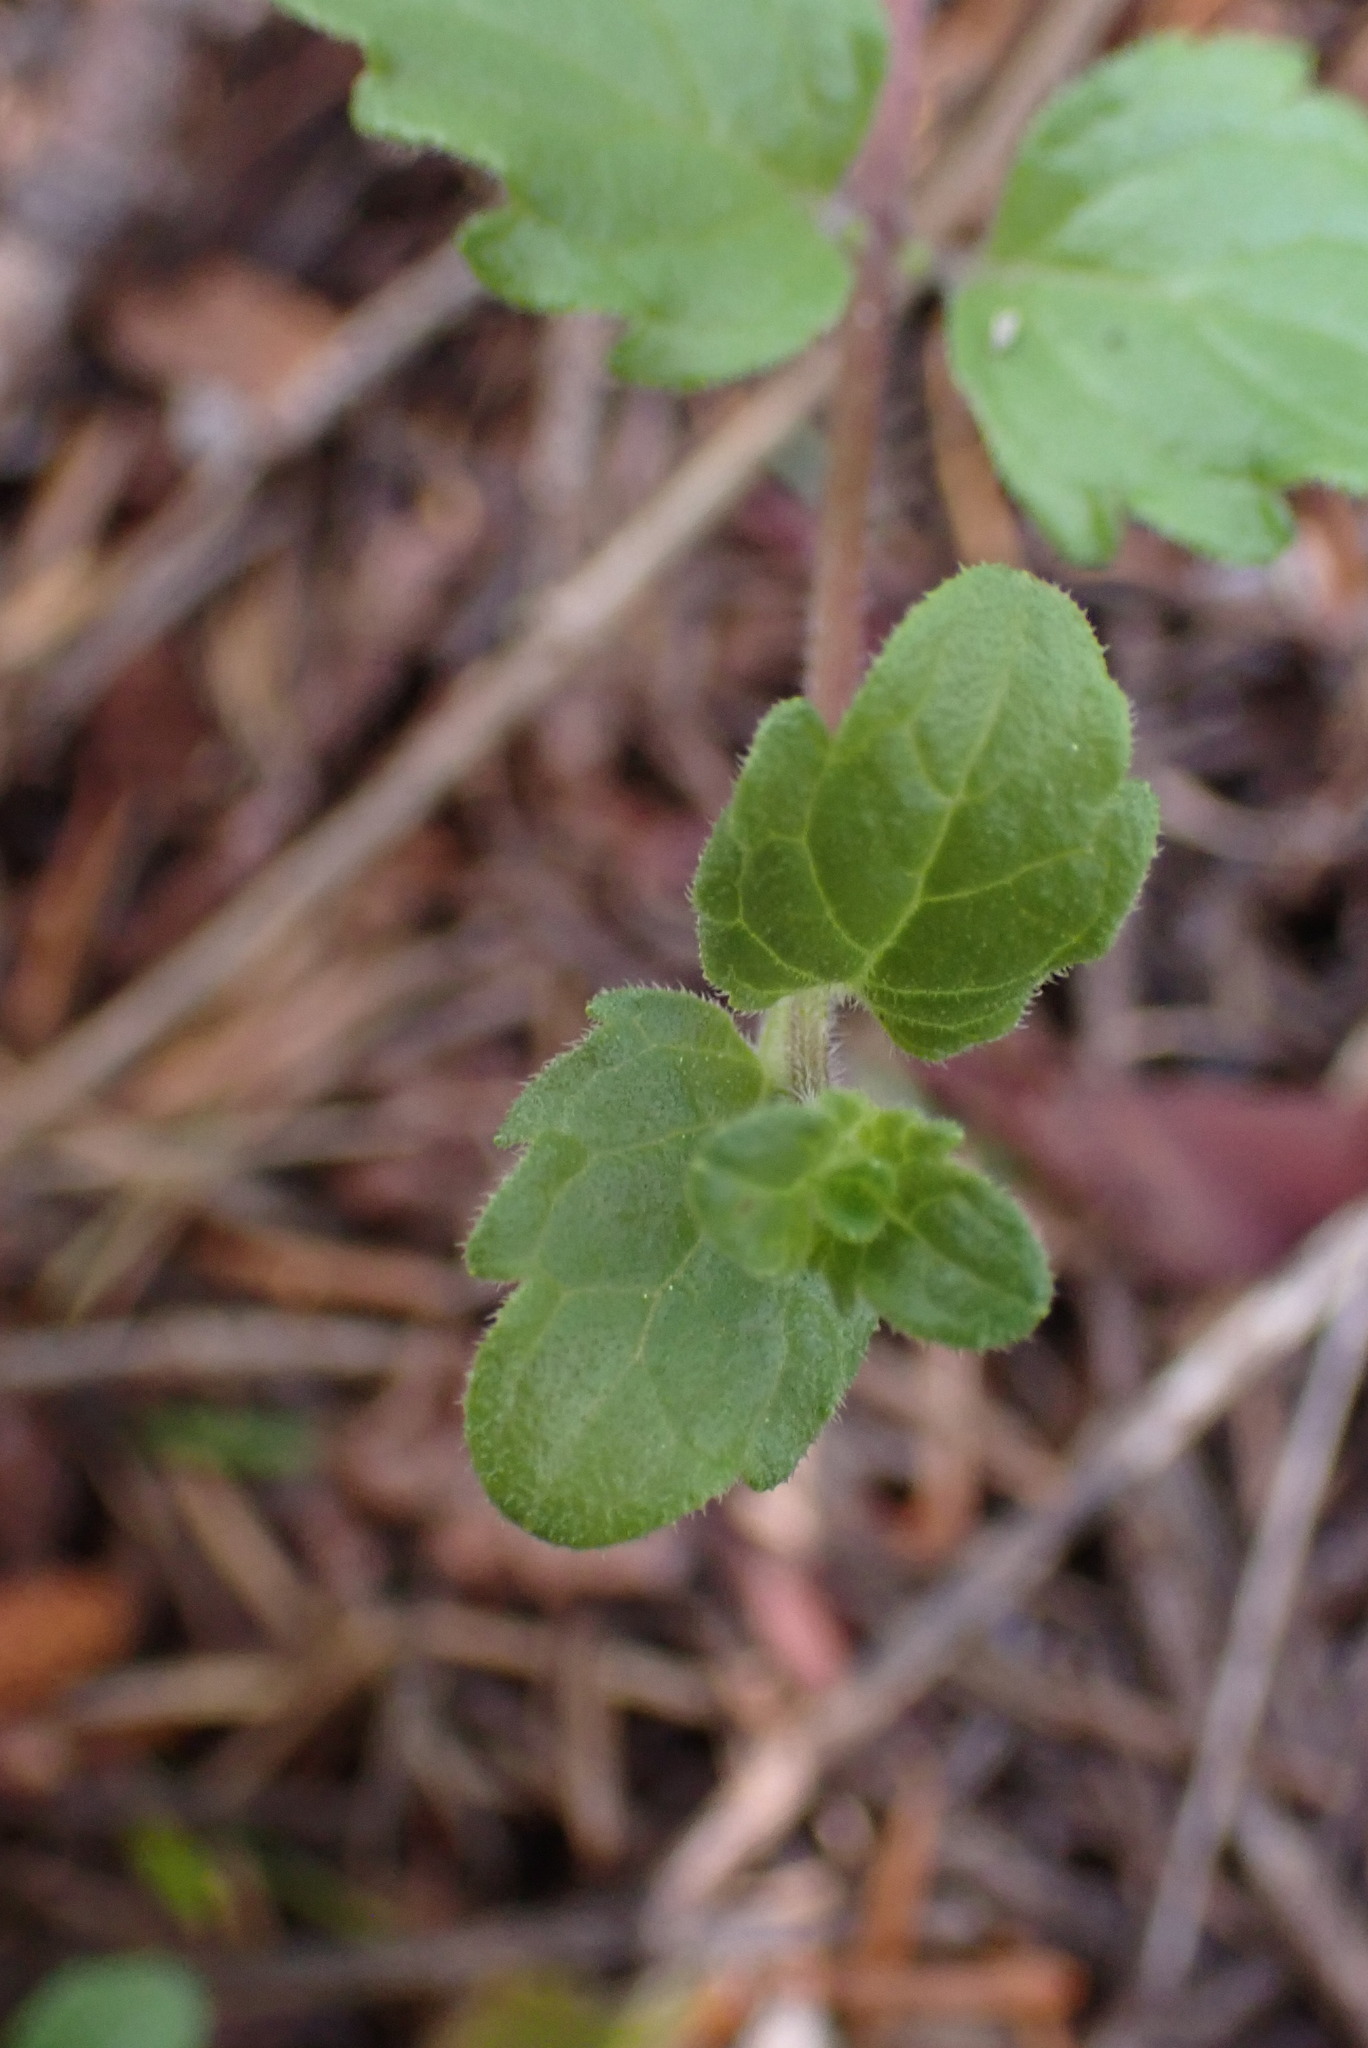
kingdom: Plantae
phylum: Tracheophyta
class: Magnoliopsida
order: Lamiales
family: Lamiaceae
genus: Micromeria
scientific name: Micromeria douglasii
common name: Yerba buena
